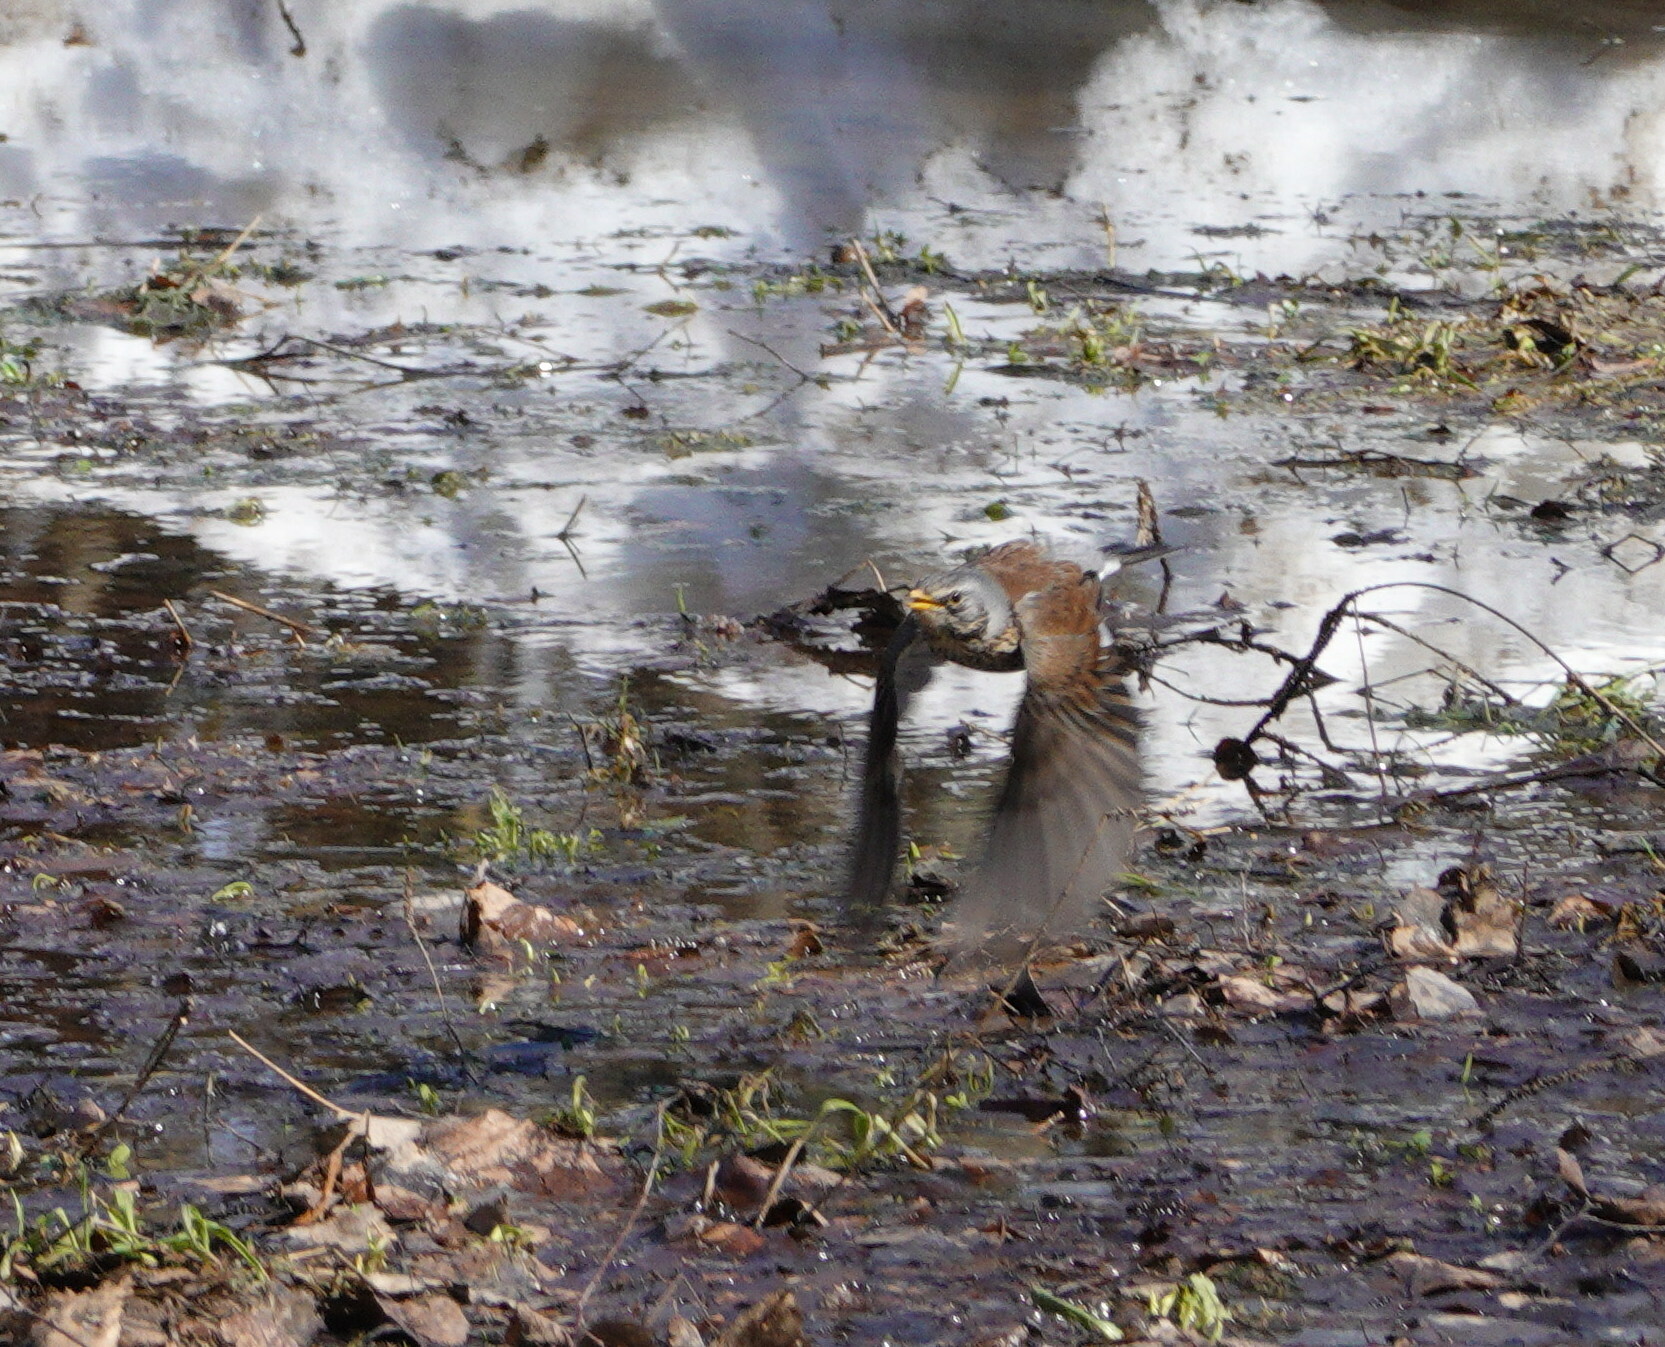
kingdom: Animalia
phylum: Chordata
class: Aves
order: Passeriformes
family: Turdidae
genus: Turdus
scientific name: Turdus pilaris
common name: Fieldfare
